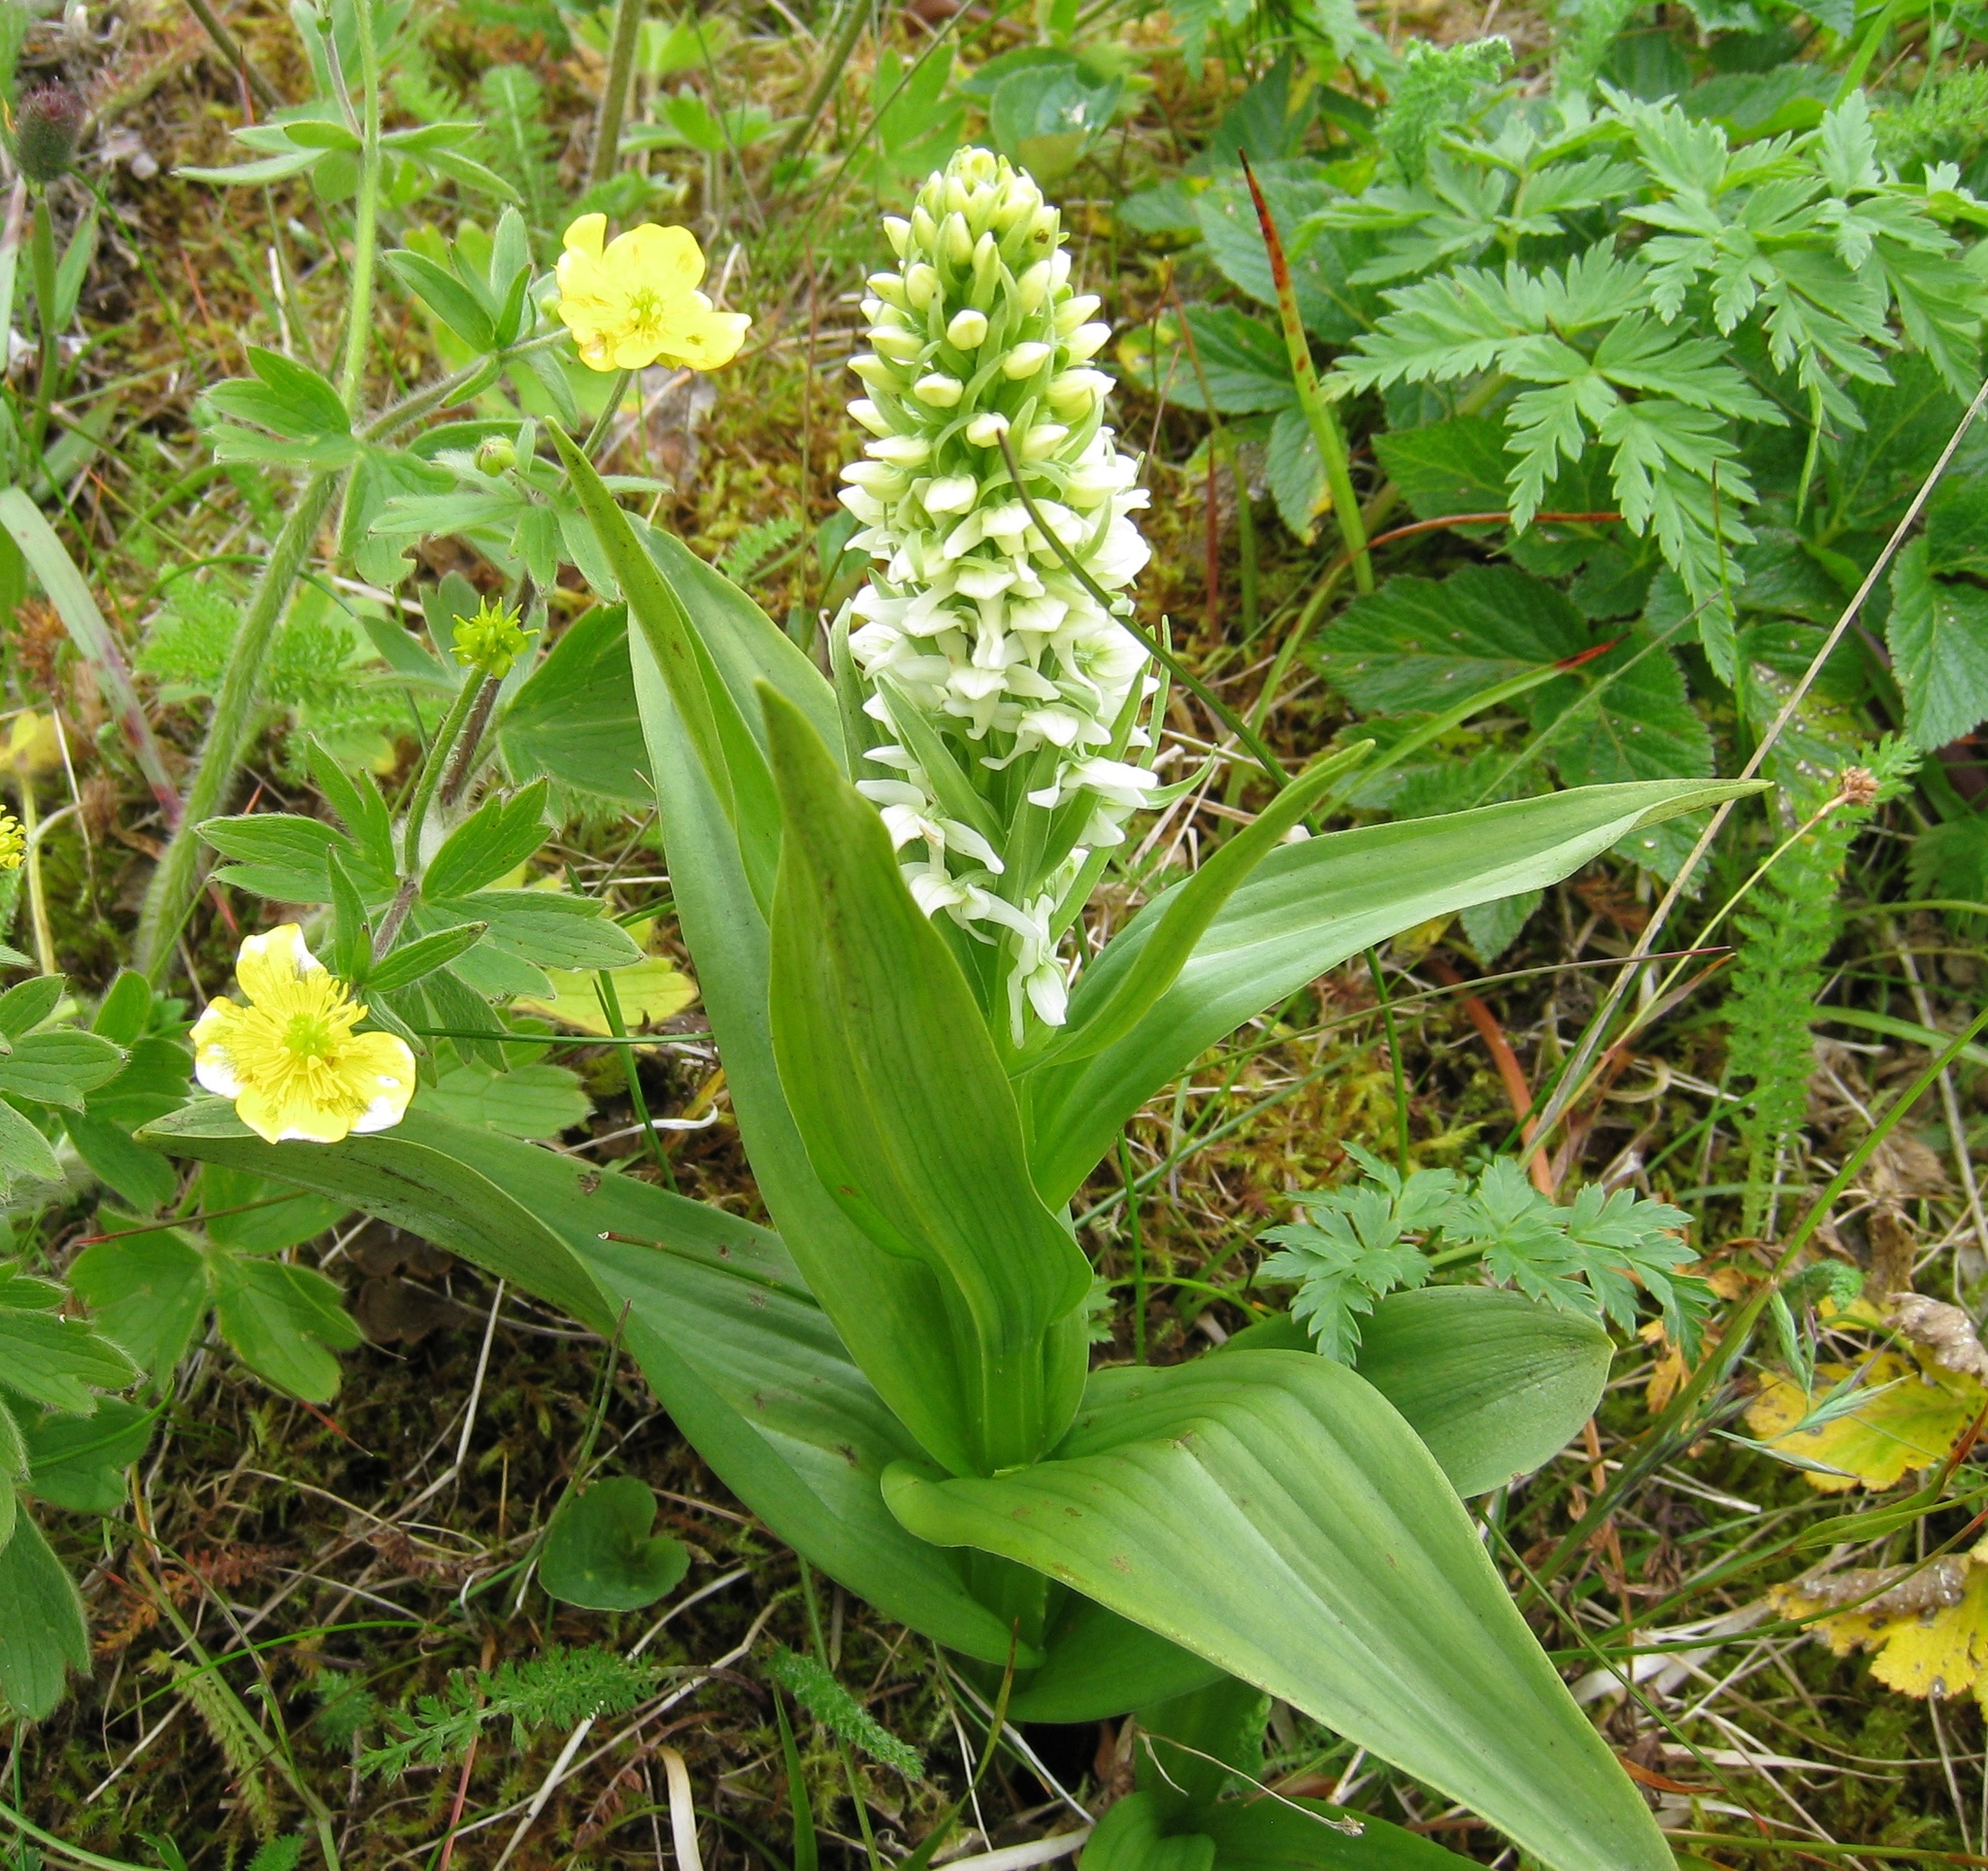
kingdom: Plantae
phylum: Tracheophyta
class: Liliopsida
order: Asparagales
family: Orchidaceae
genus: Platanthera
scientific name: Platanthera dilatata
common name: Bog candles
